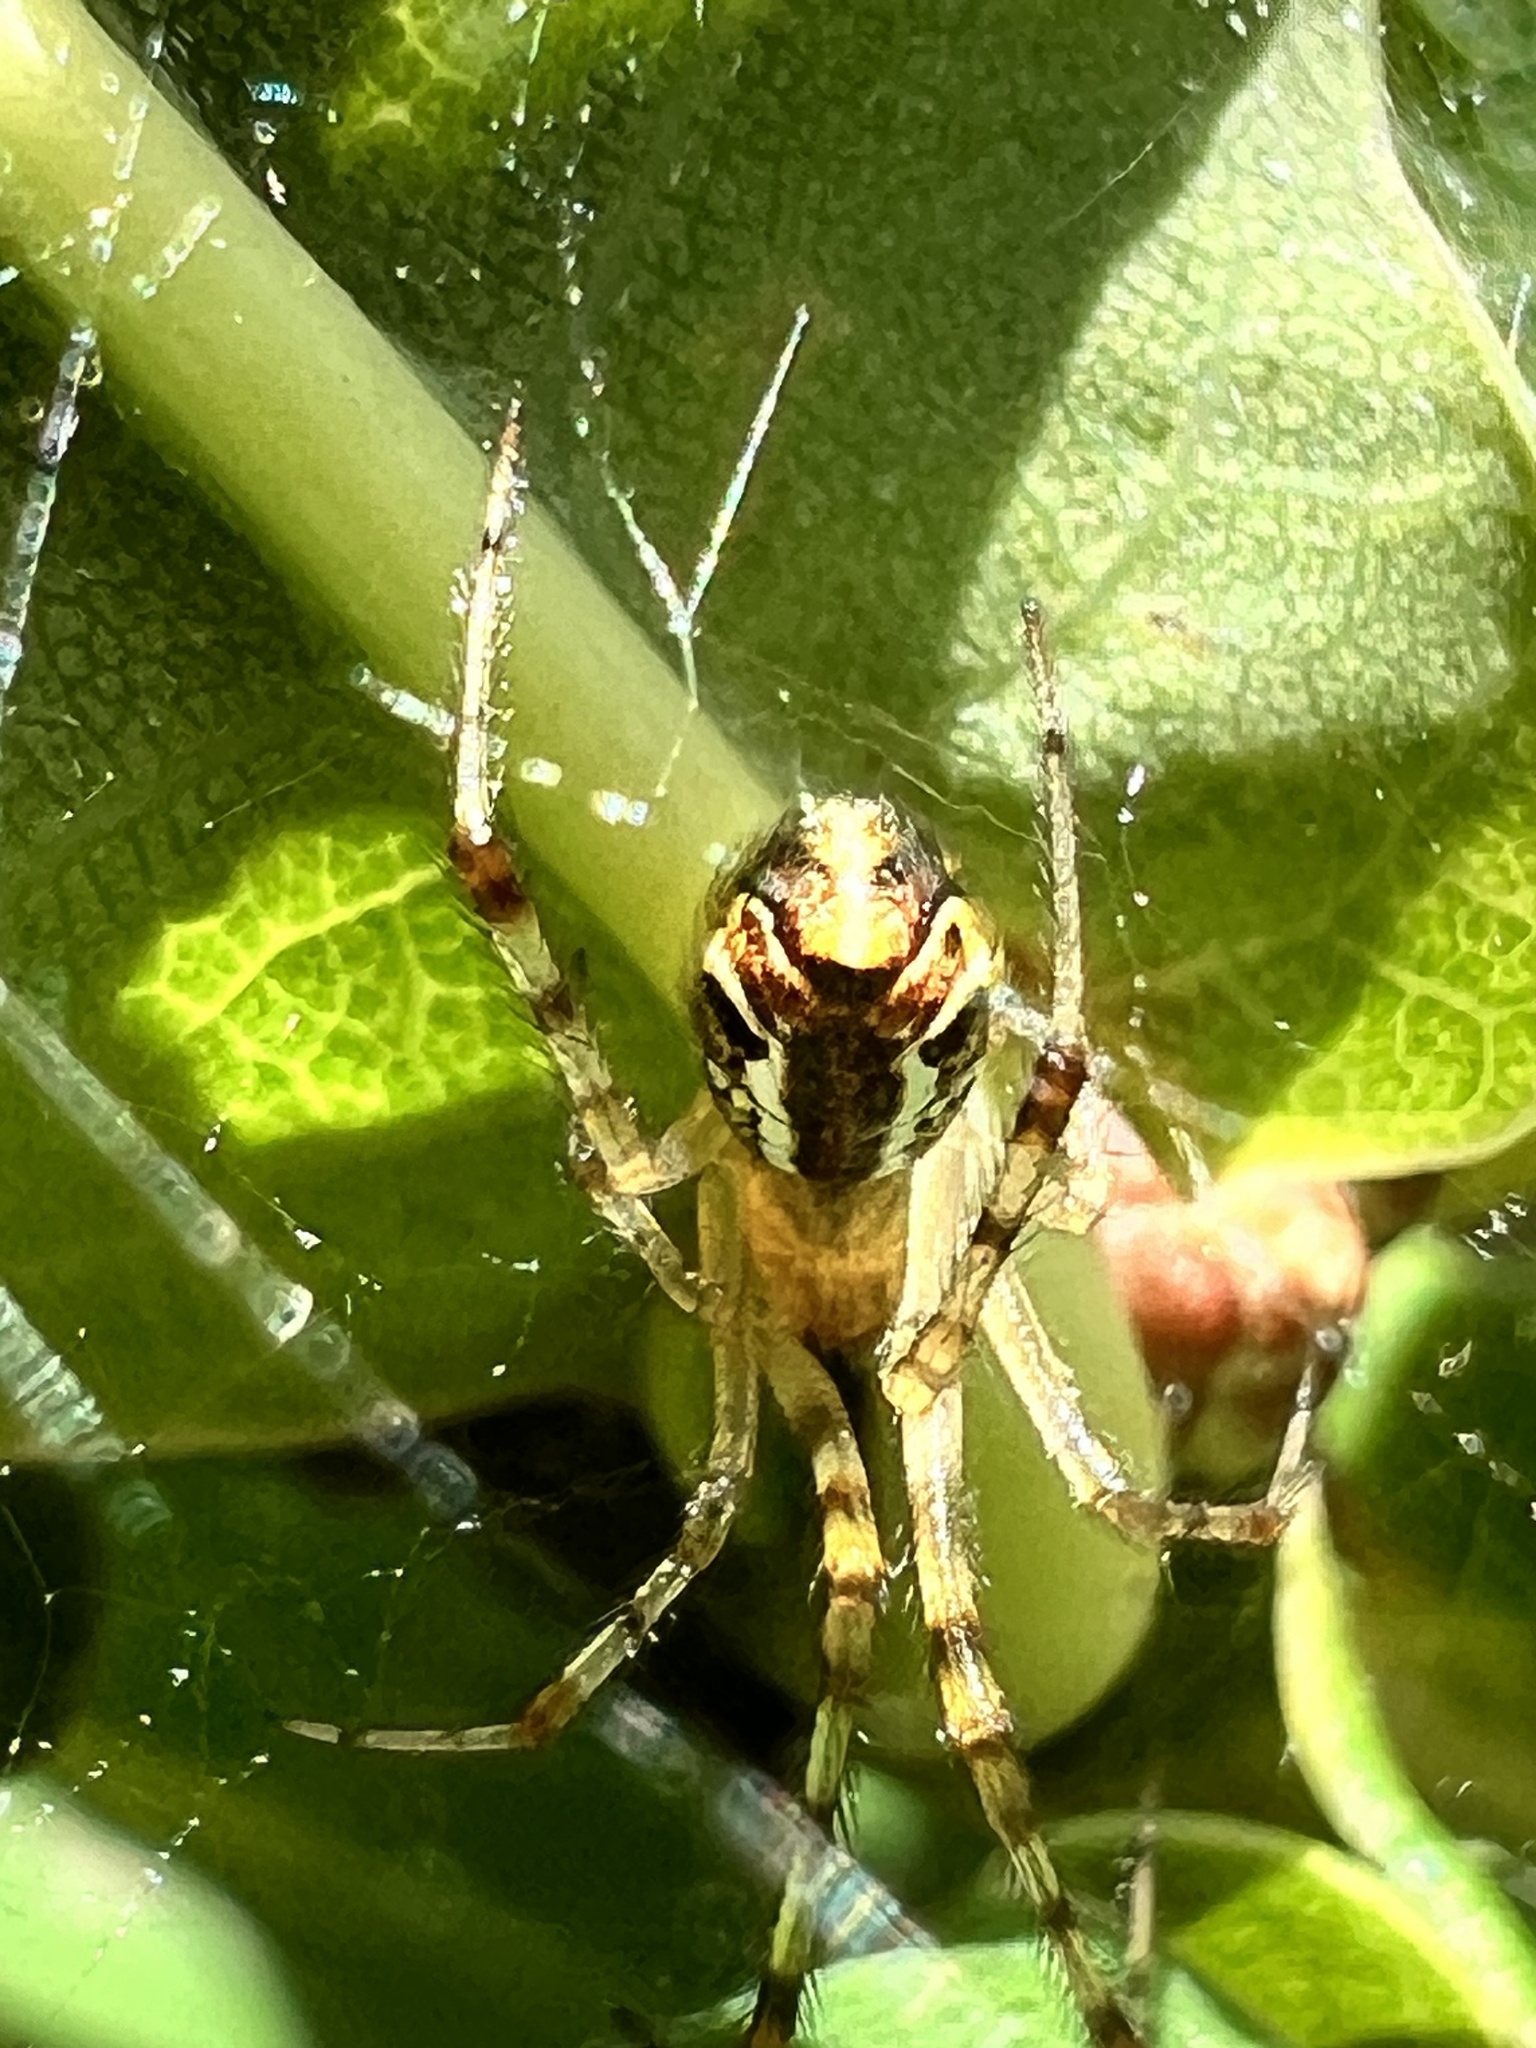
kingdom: Animalia
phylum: Arthropoda
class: Arachnida
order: Araneae
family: Theridiidae
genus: Theridion
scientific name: Theridion pyramidale
